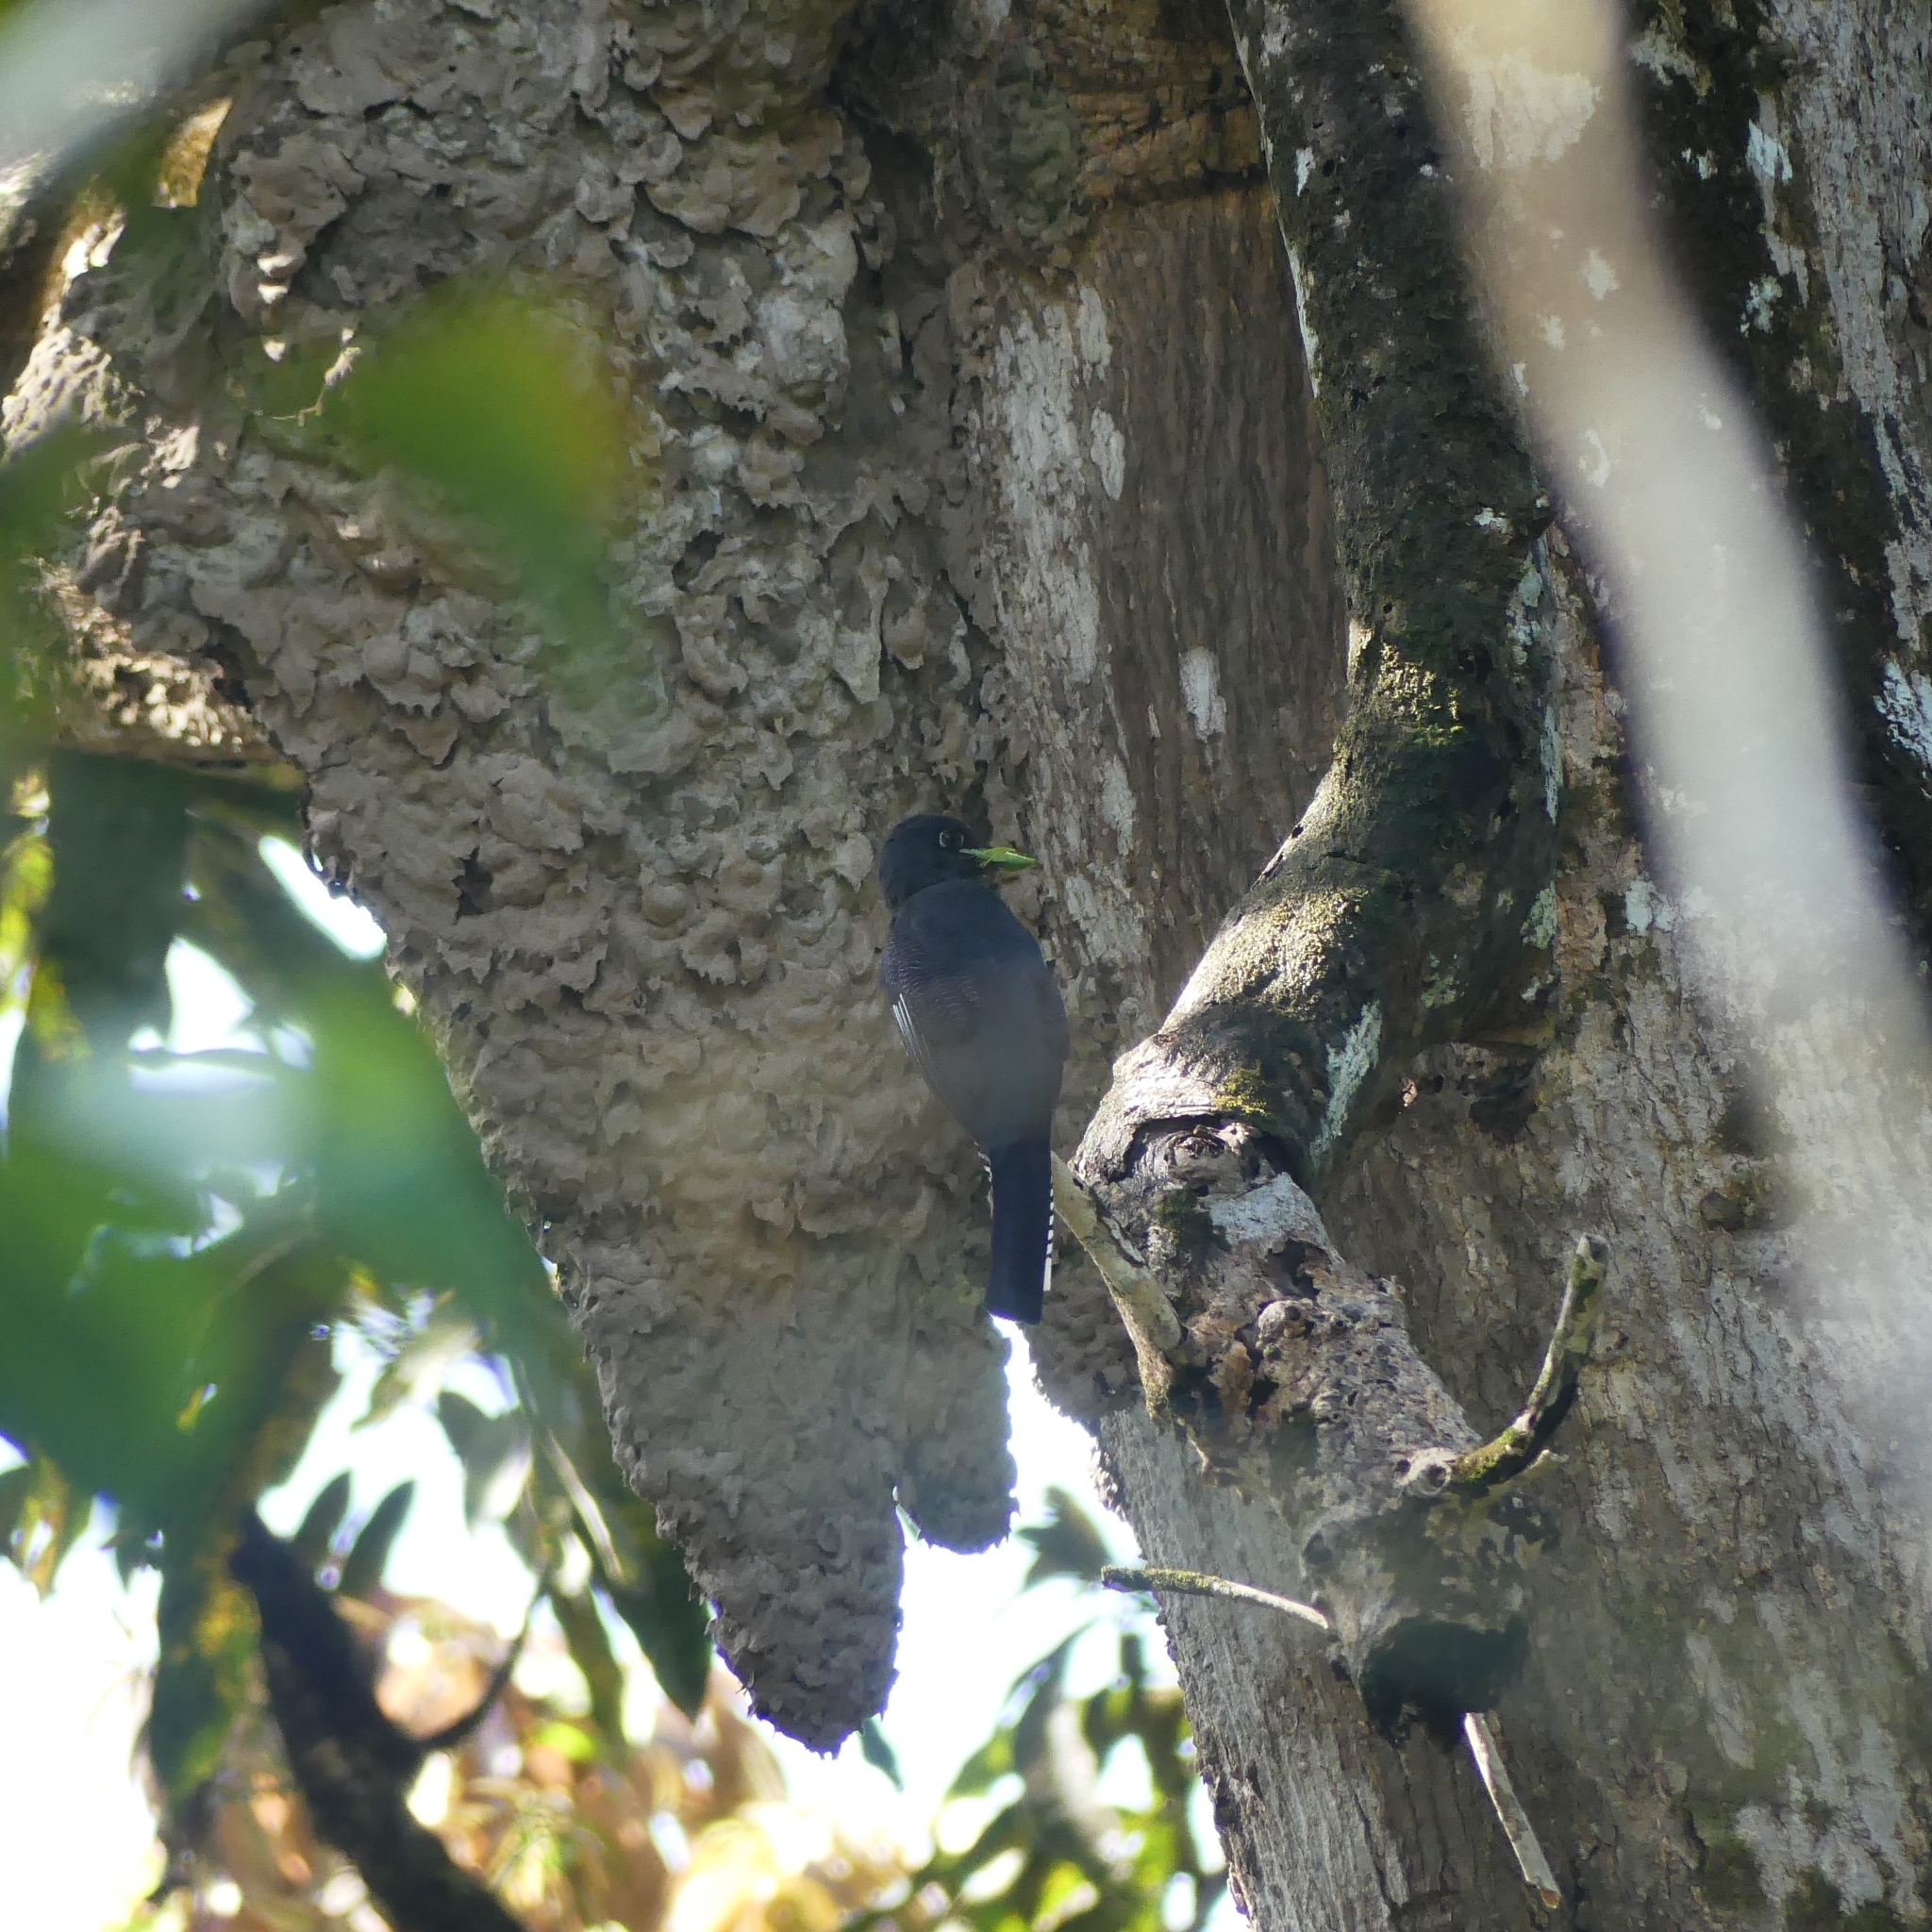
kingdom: Animalia
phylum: Chordata
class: Aves
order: Trogoniformes
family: Trogonidae
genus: Trogon
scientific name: Trogon violaceus
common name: Guianan trogon
